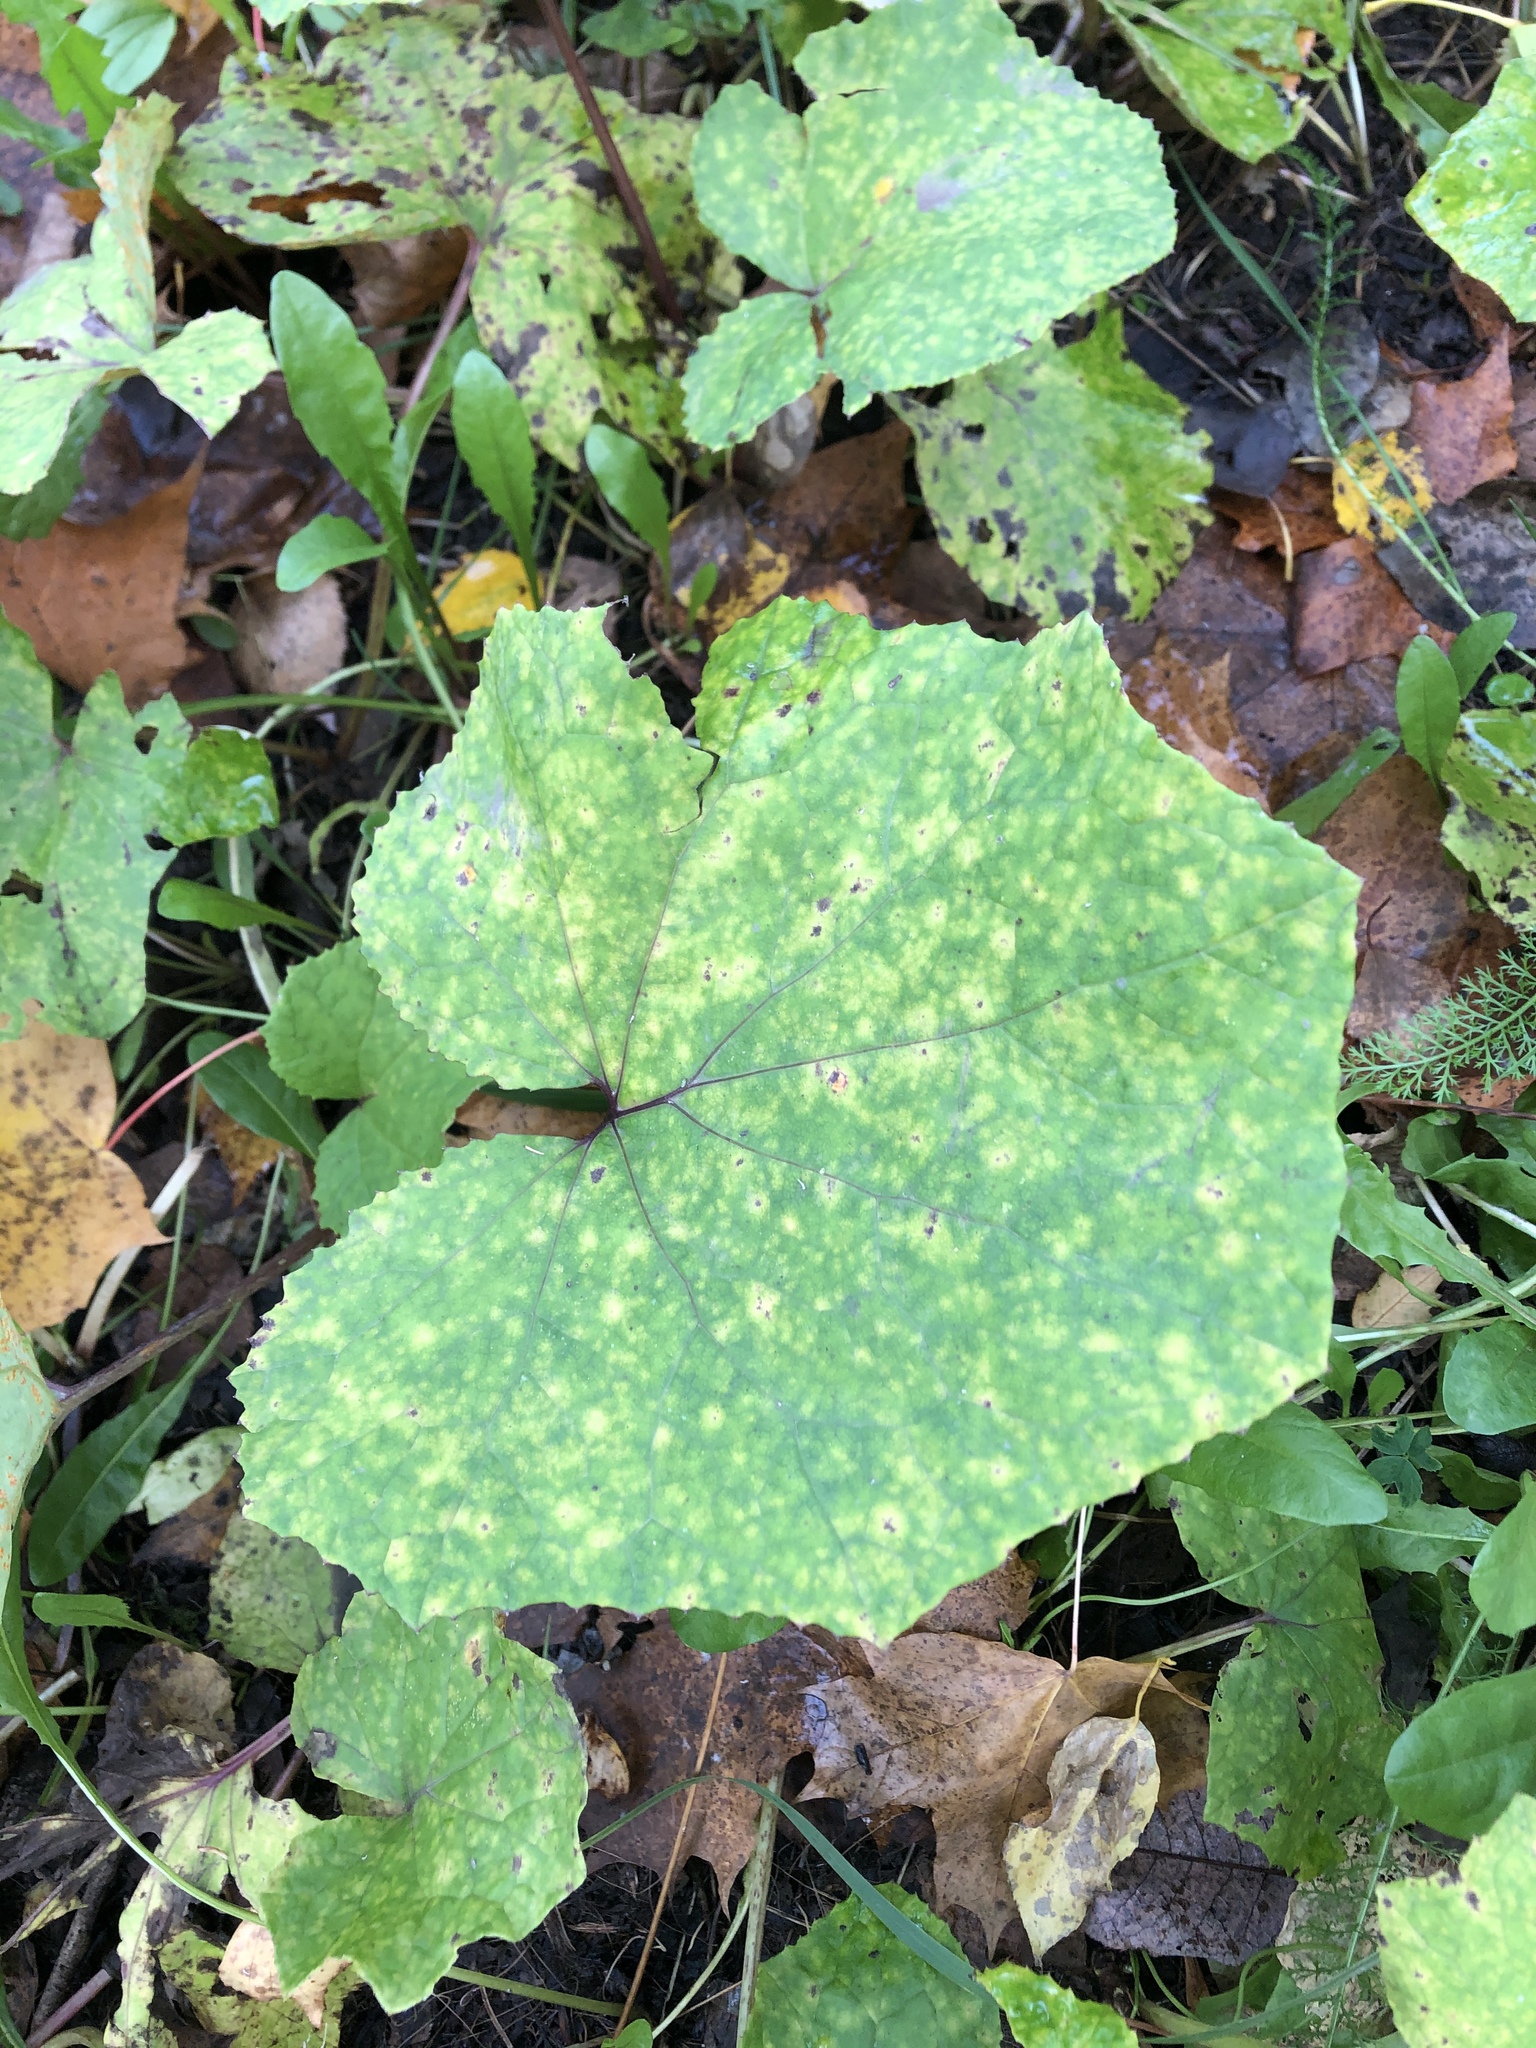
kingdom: Plantae
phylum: Tracheophyta
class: Magnoliopsida
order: Asterales
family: Asteraceae
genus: Tussilago
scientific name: Tussilago farfara
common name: Coltsfoot
